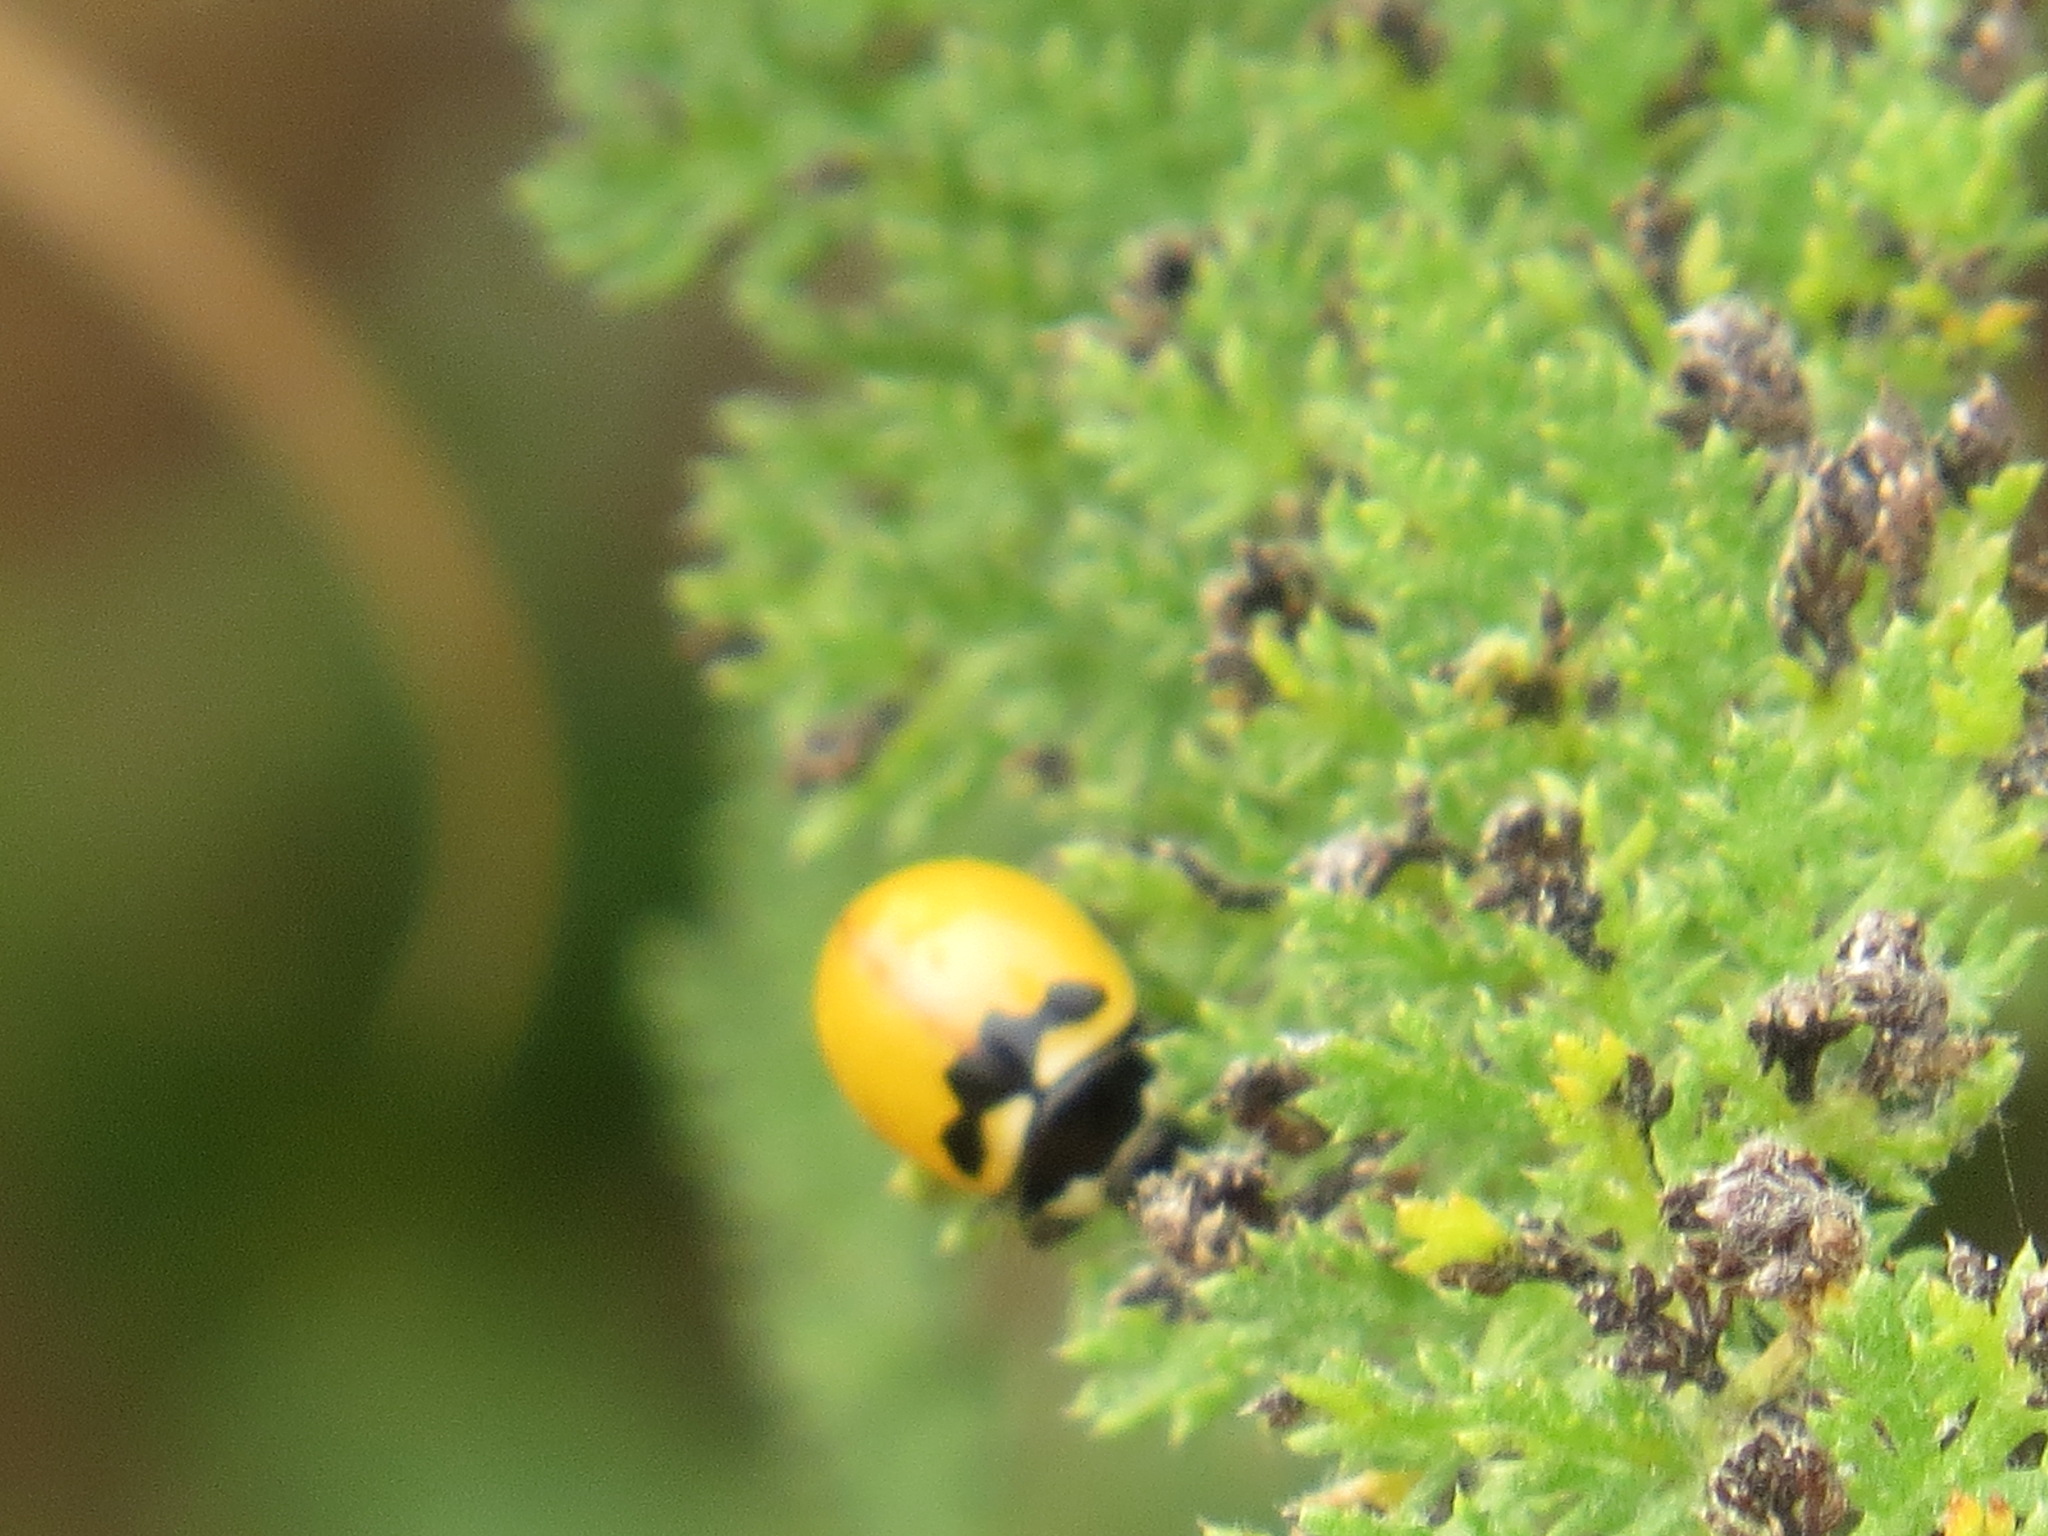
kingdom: Animalia
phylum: Arthropoda
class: Insecta
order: Coleoptera
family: Coccinellidae
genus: Coccinella
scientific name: Coccinella trifasciata
